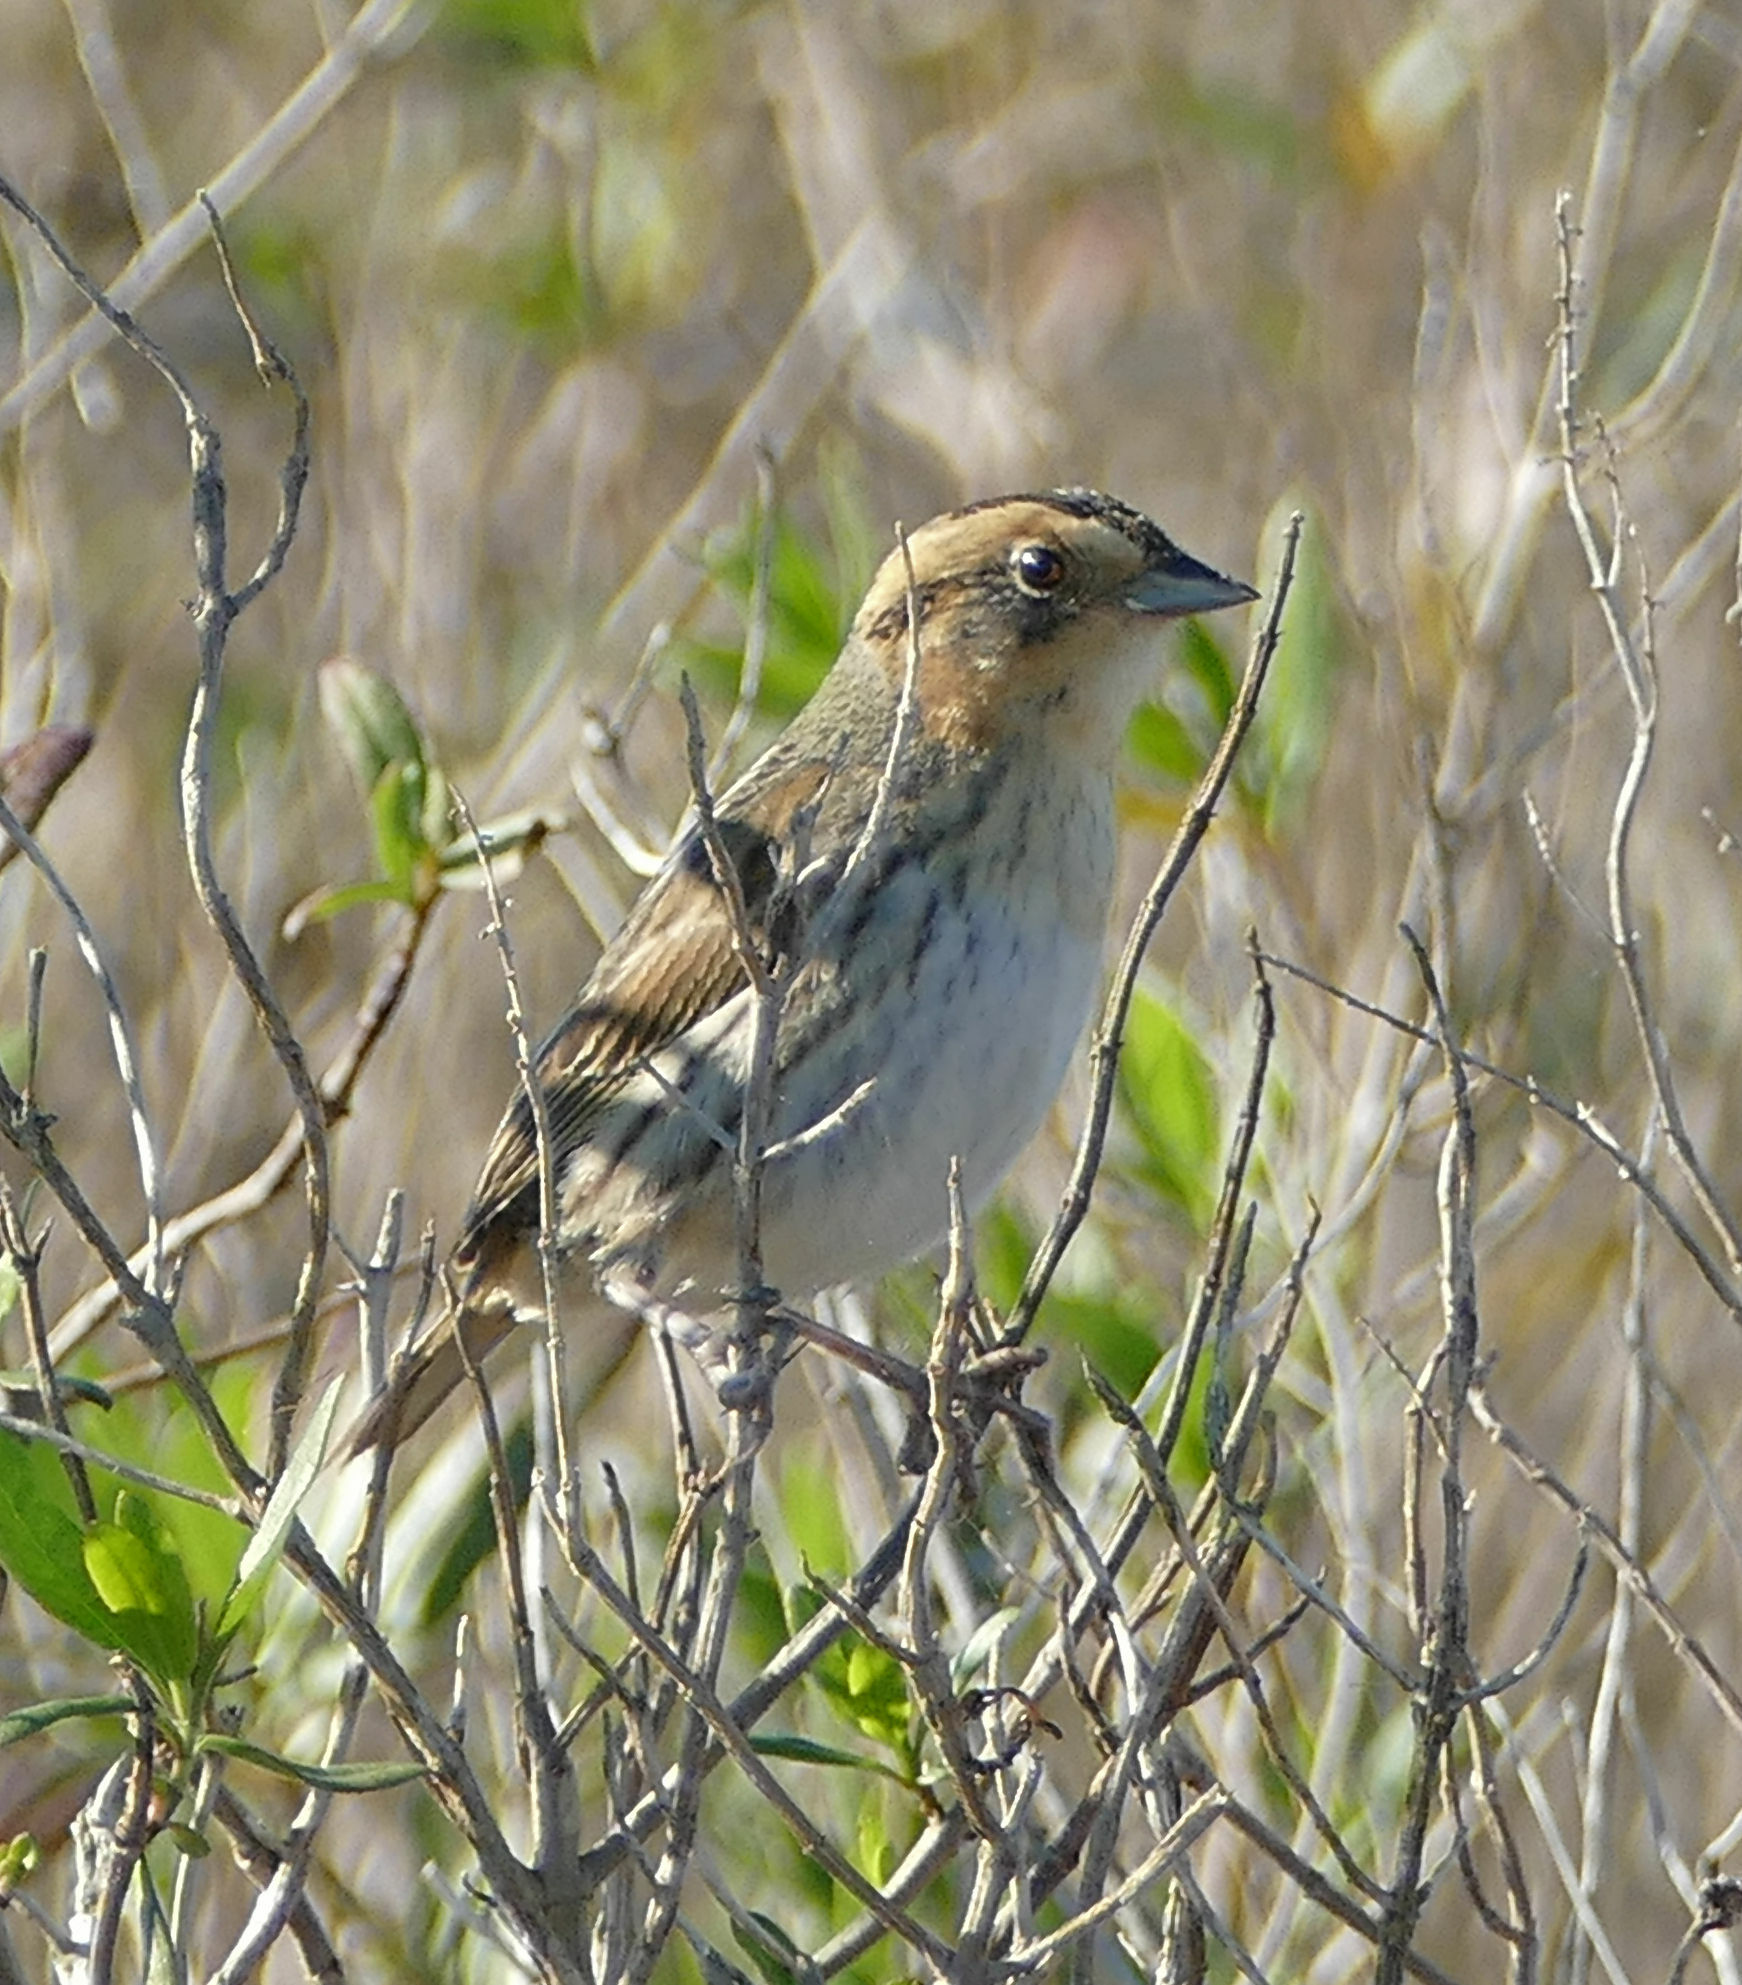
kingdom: Animalia
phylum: Chordata
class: Aves
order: Passeriformes
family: Passerellidae
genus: Ammospiza
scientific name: Ammospiza nelsoni
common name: Nelson's sparrow
